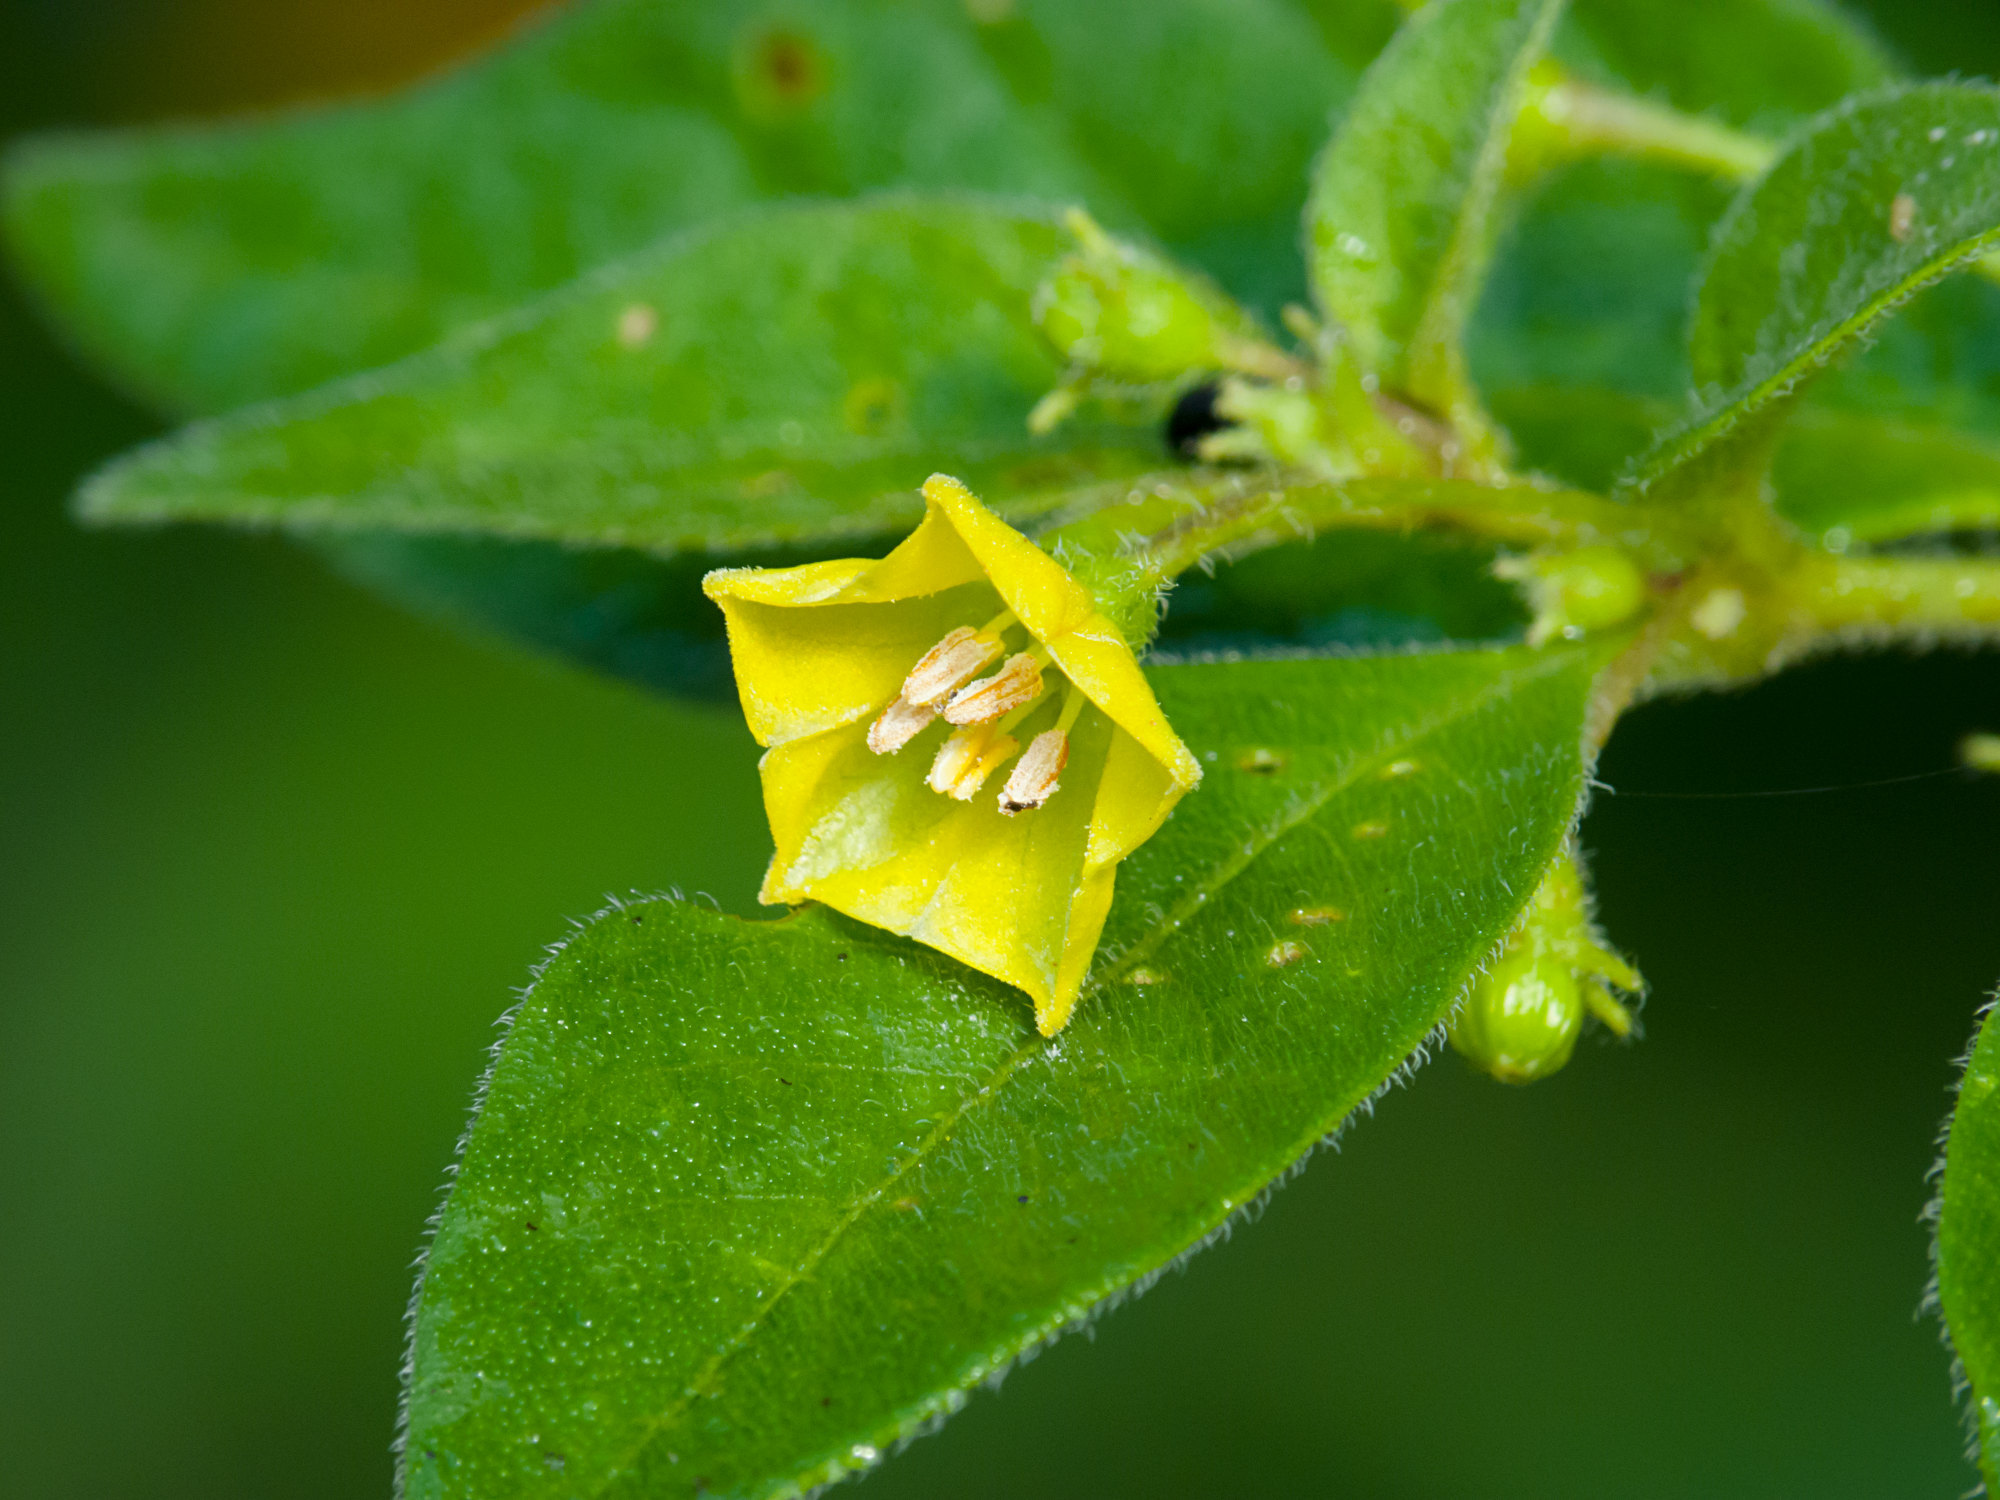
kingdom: Plantae
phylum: Tracheophyta
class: Magnoliopsida
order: Solanales
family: Solanaceae
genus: Capsicum
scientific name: Capsicum rhomboideum
